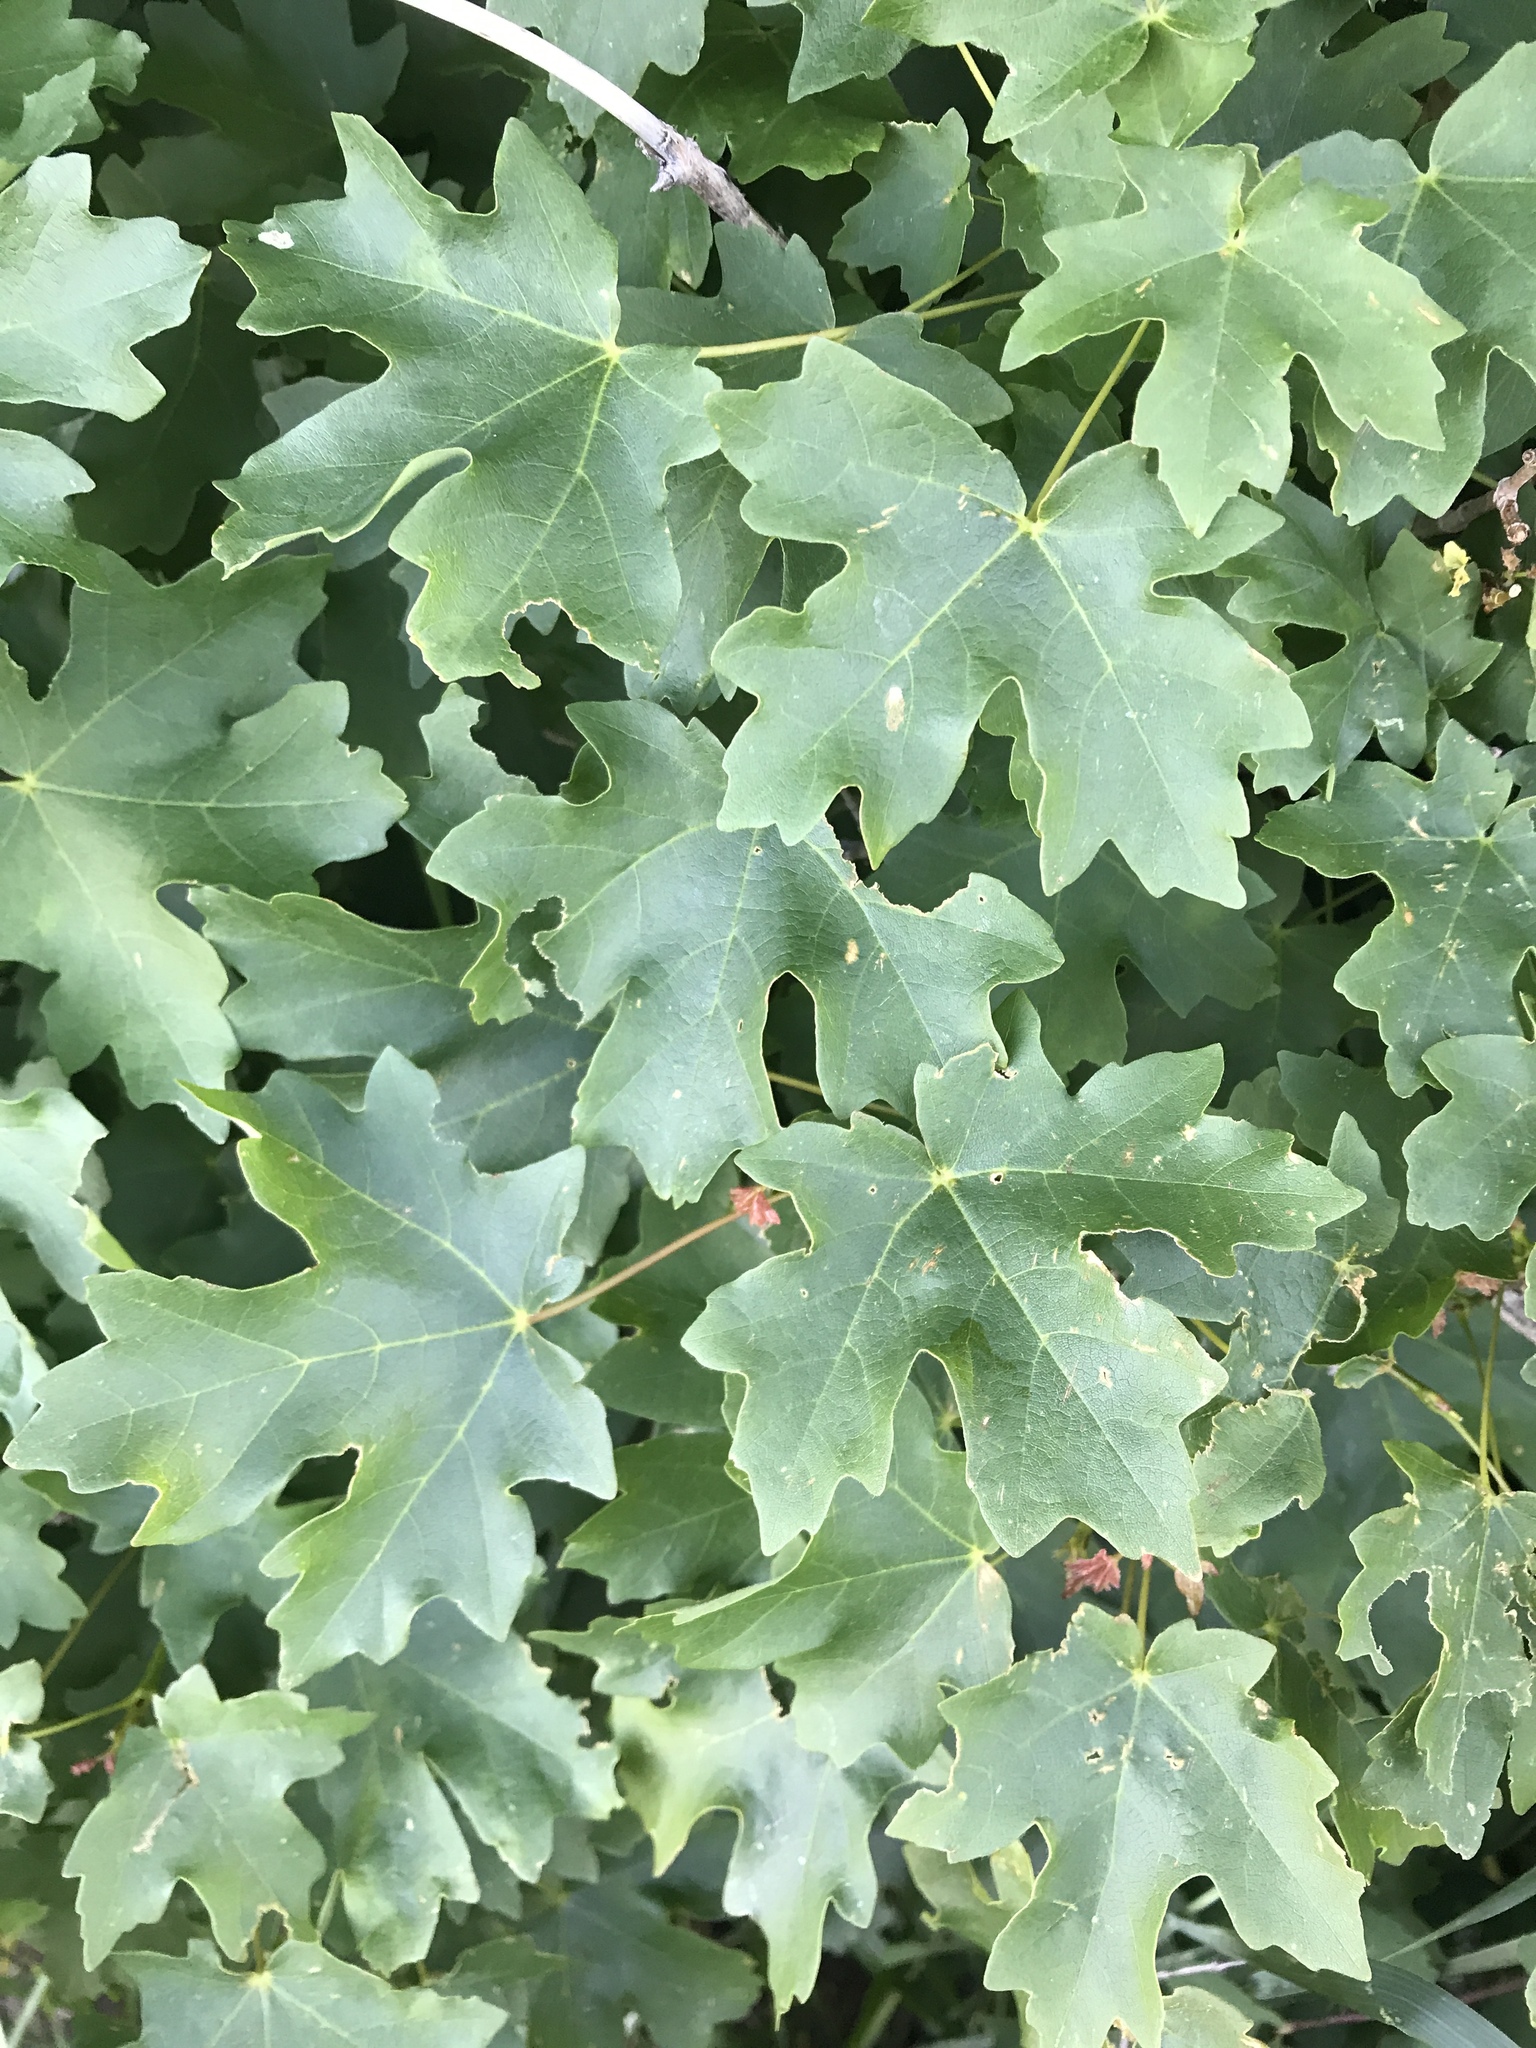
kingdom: Plantae
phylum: Tracheophyta
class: Magnoliopsida
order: Sapindales
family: Sapindaceae
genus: Acer
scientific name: Acer grandidentatum
